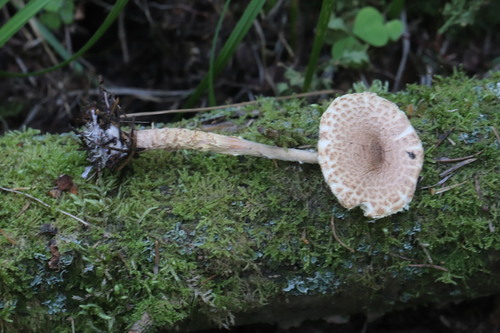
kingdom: Fungi
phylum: Basidiomycota
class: Agaricomycetes
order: Agaricales
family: Agaricaceae
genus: Lepiota
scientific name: Lepiota clypeolaria
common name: Shield dapperling
